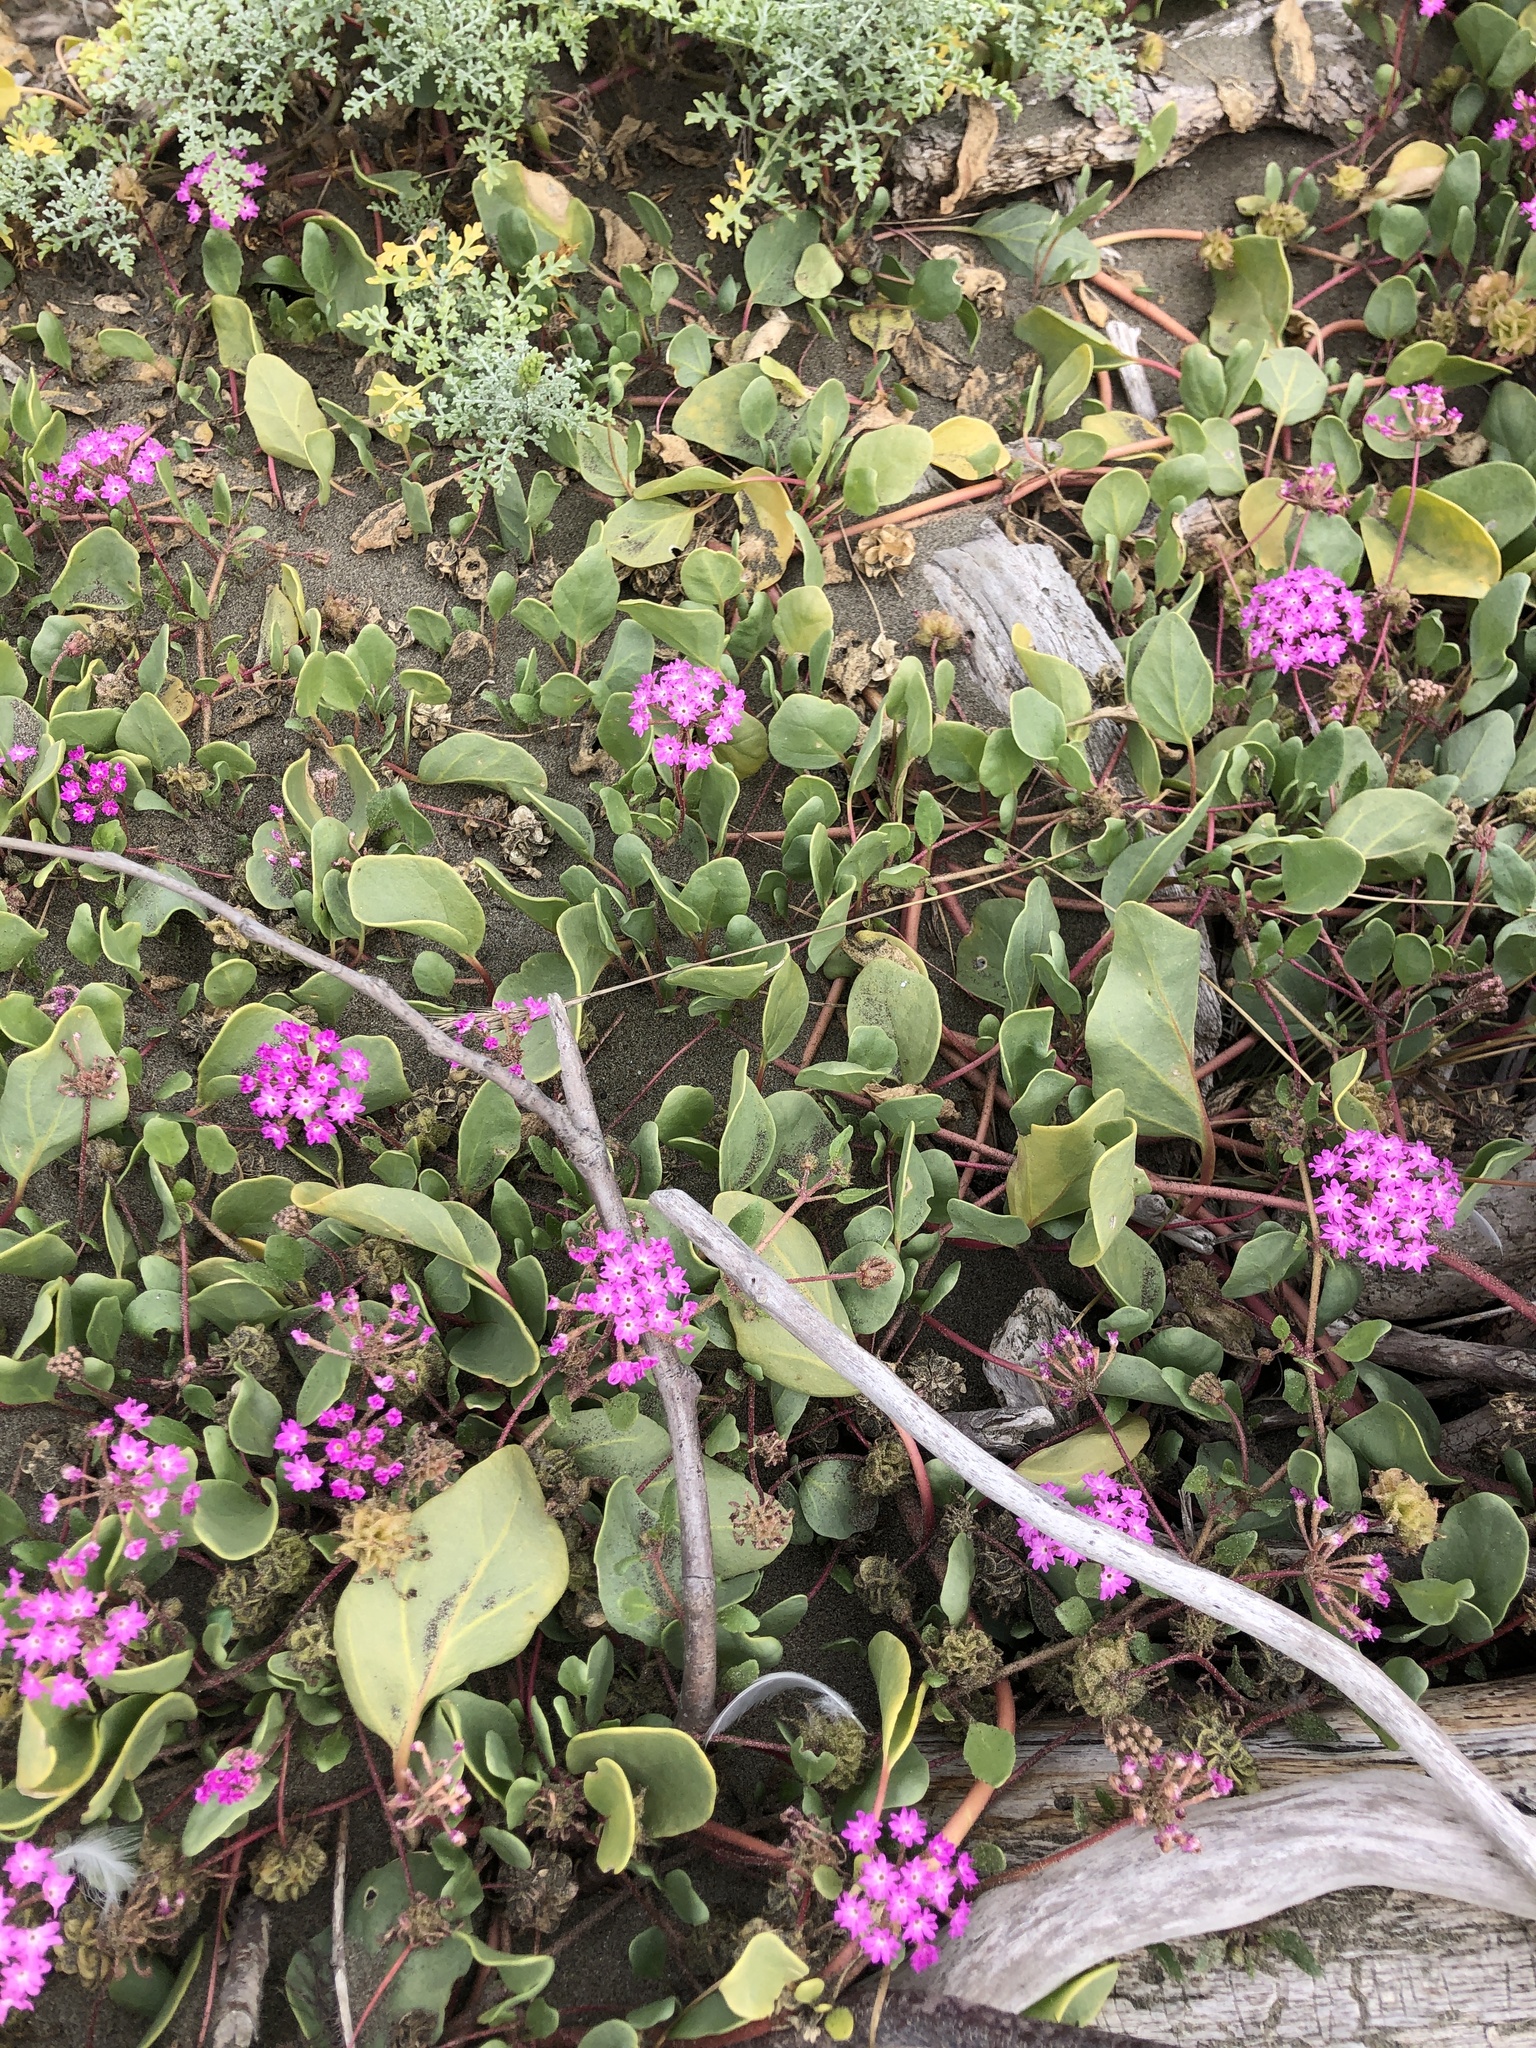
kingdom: Plantae
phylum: Tracheophyta
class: Magnoliopsida
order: Caryophyllales
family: Nyctaginaceae
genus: Abronia
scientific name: Abronia umbellata
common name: Sand-verbena
